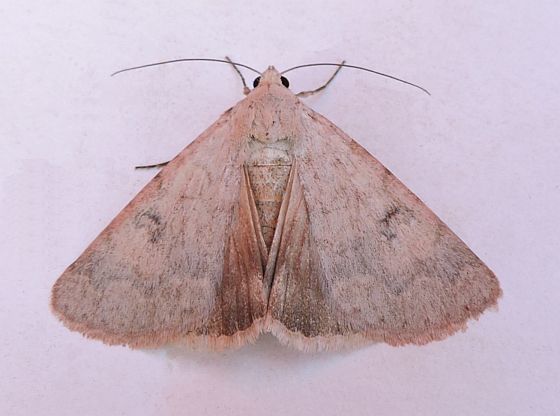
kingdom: Animalia
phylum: Arthropoda
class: Insecta
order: Lepidoptera
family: Erebidae
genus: Drasteria
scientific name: Drasteria inepta
